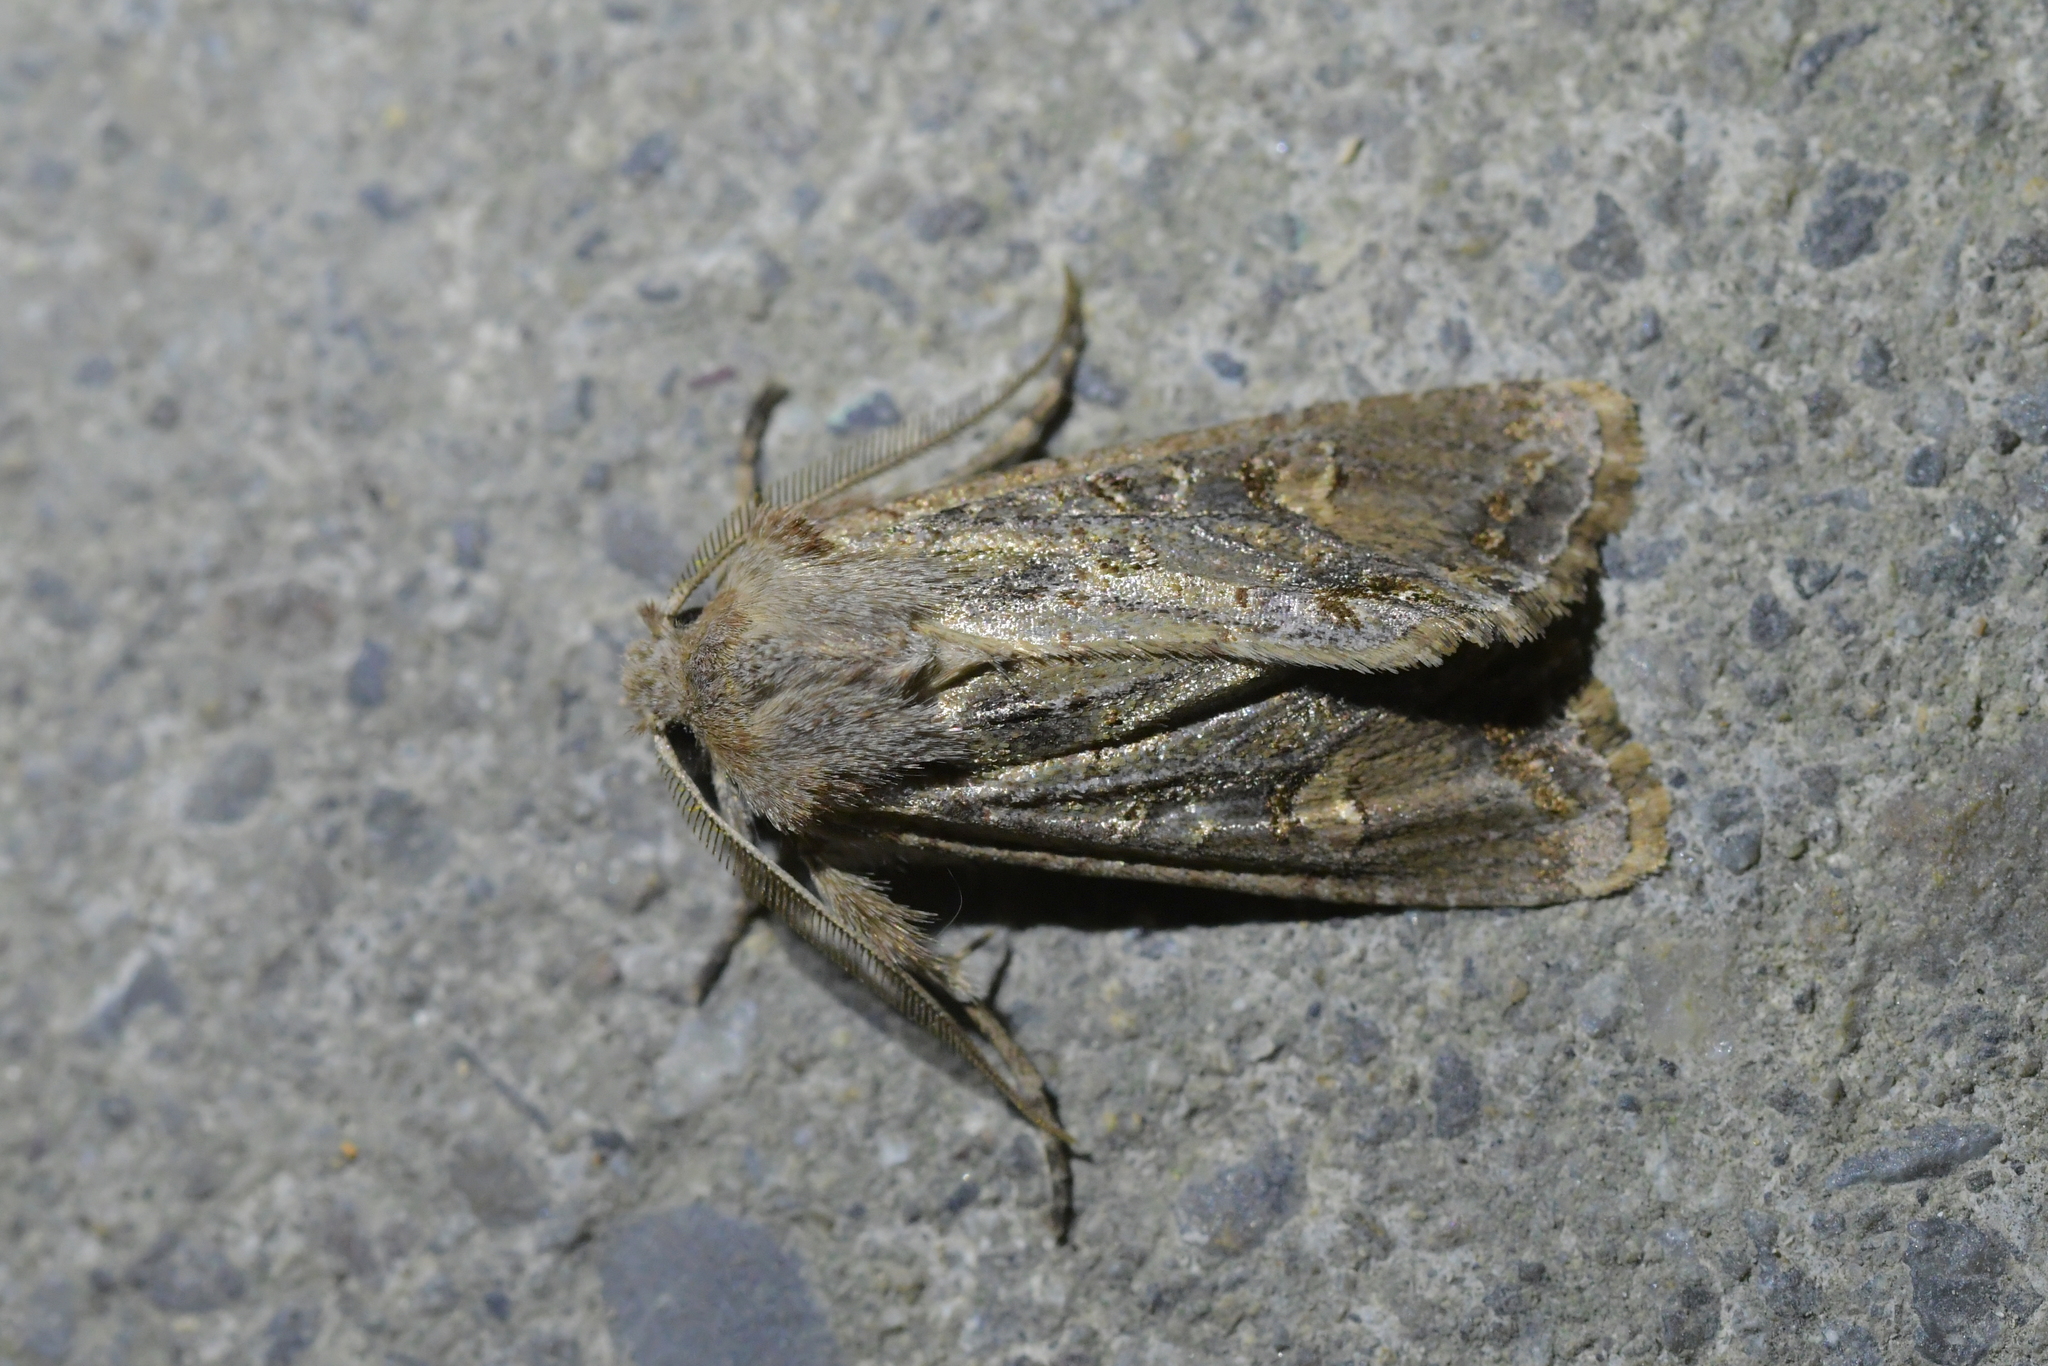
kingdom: Animalia
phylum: Arthropoda
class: Insecta
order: Lepidoptera
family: Noctuidae
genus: Ichneutica
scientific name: Ichneutica
